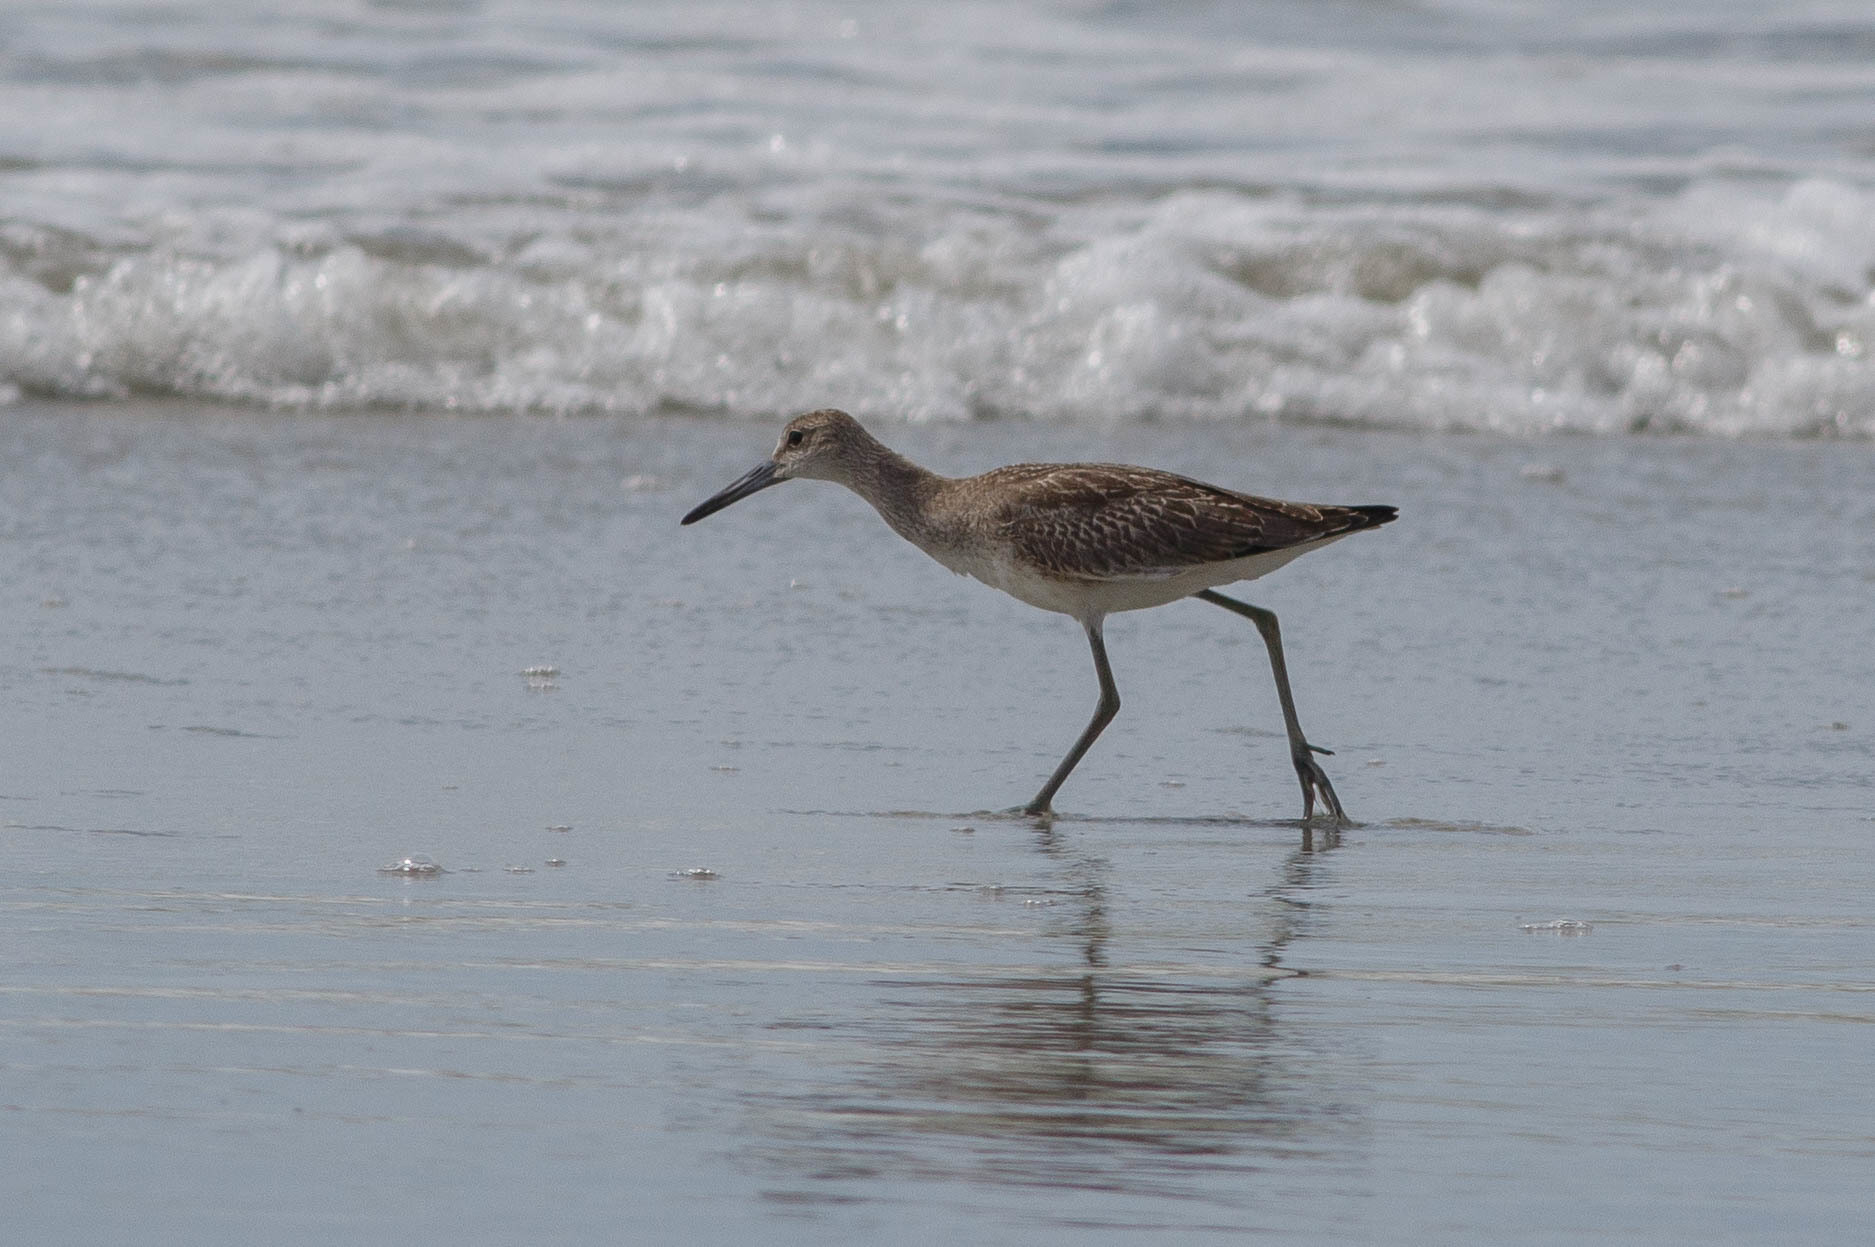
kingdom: Animalia
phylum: Chordata
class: Aves
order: Charadriiformes
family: Scolopacidae
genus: Tringa
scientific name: Tringa semipalmata
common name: Willet
